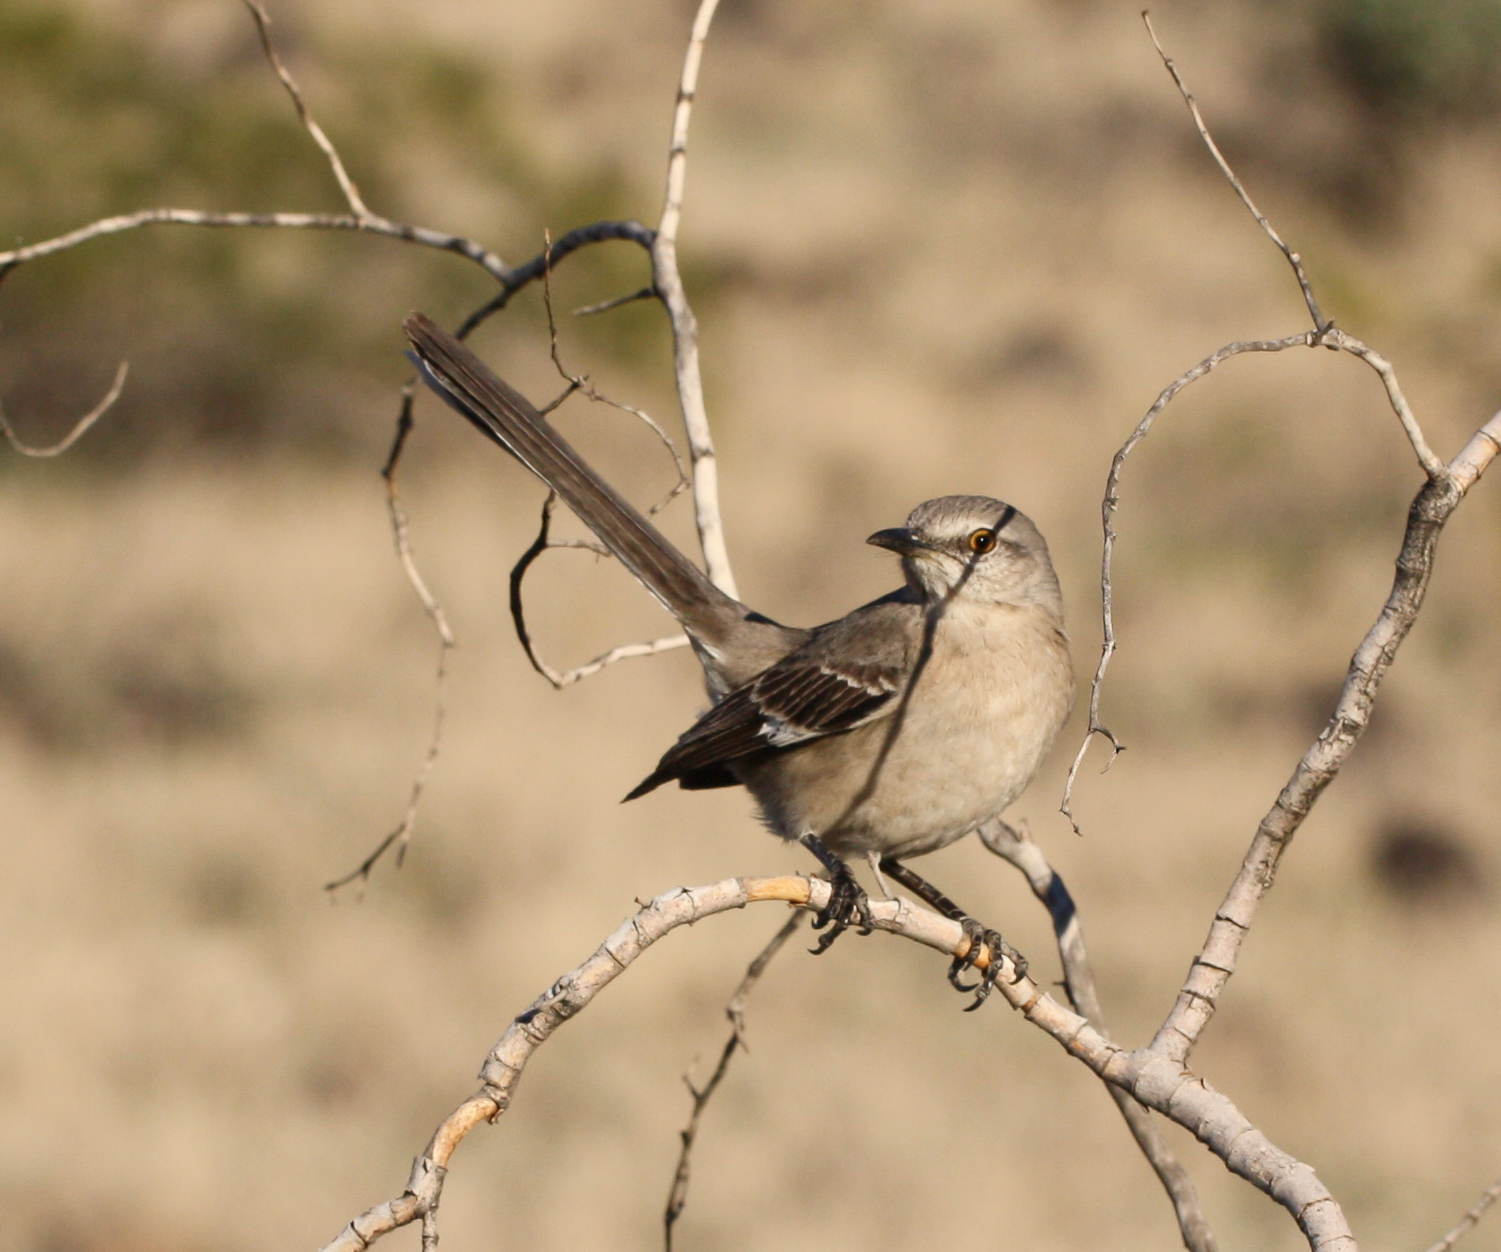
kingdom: Animalia
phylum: Chordata
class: Aves
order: Passeriformes
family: Mimidae
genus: Mimus
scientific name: Mimus polyglottos
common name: Northern mockingbird
